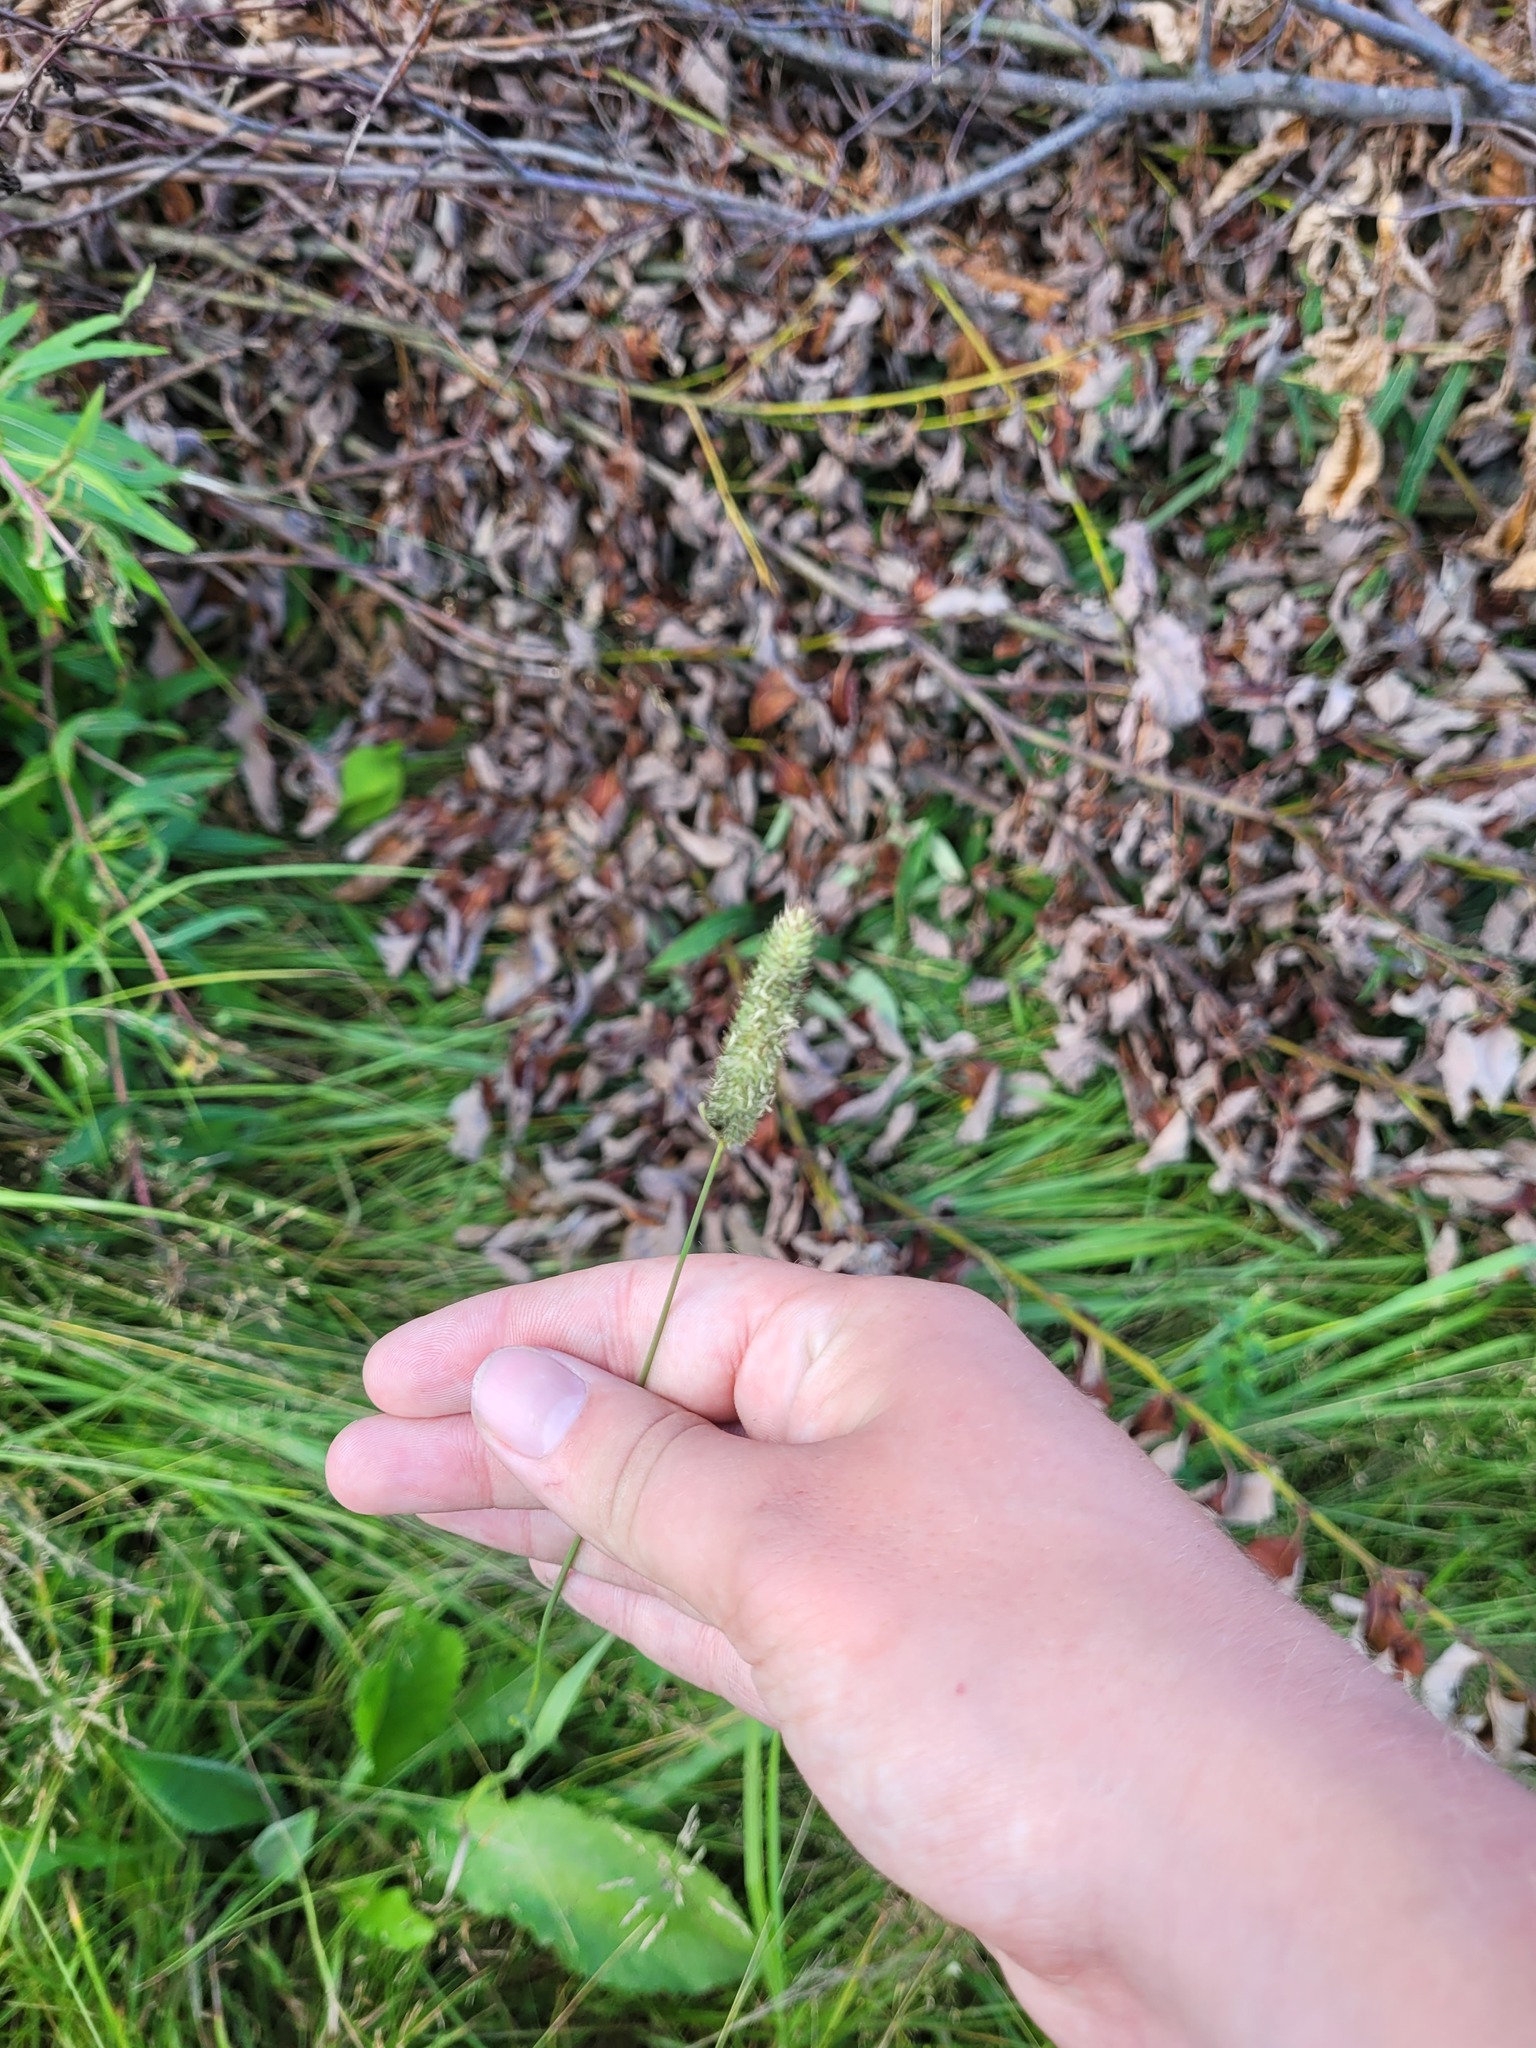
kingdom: Plantae
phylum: Tracheophyta
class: Liliopsida
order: Poales
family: Poaceae
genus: Phleum
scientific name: Phleum pratense
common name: Timothy grass
